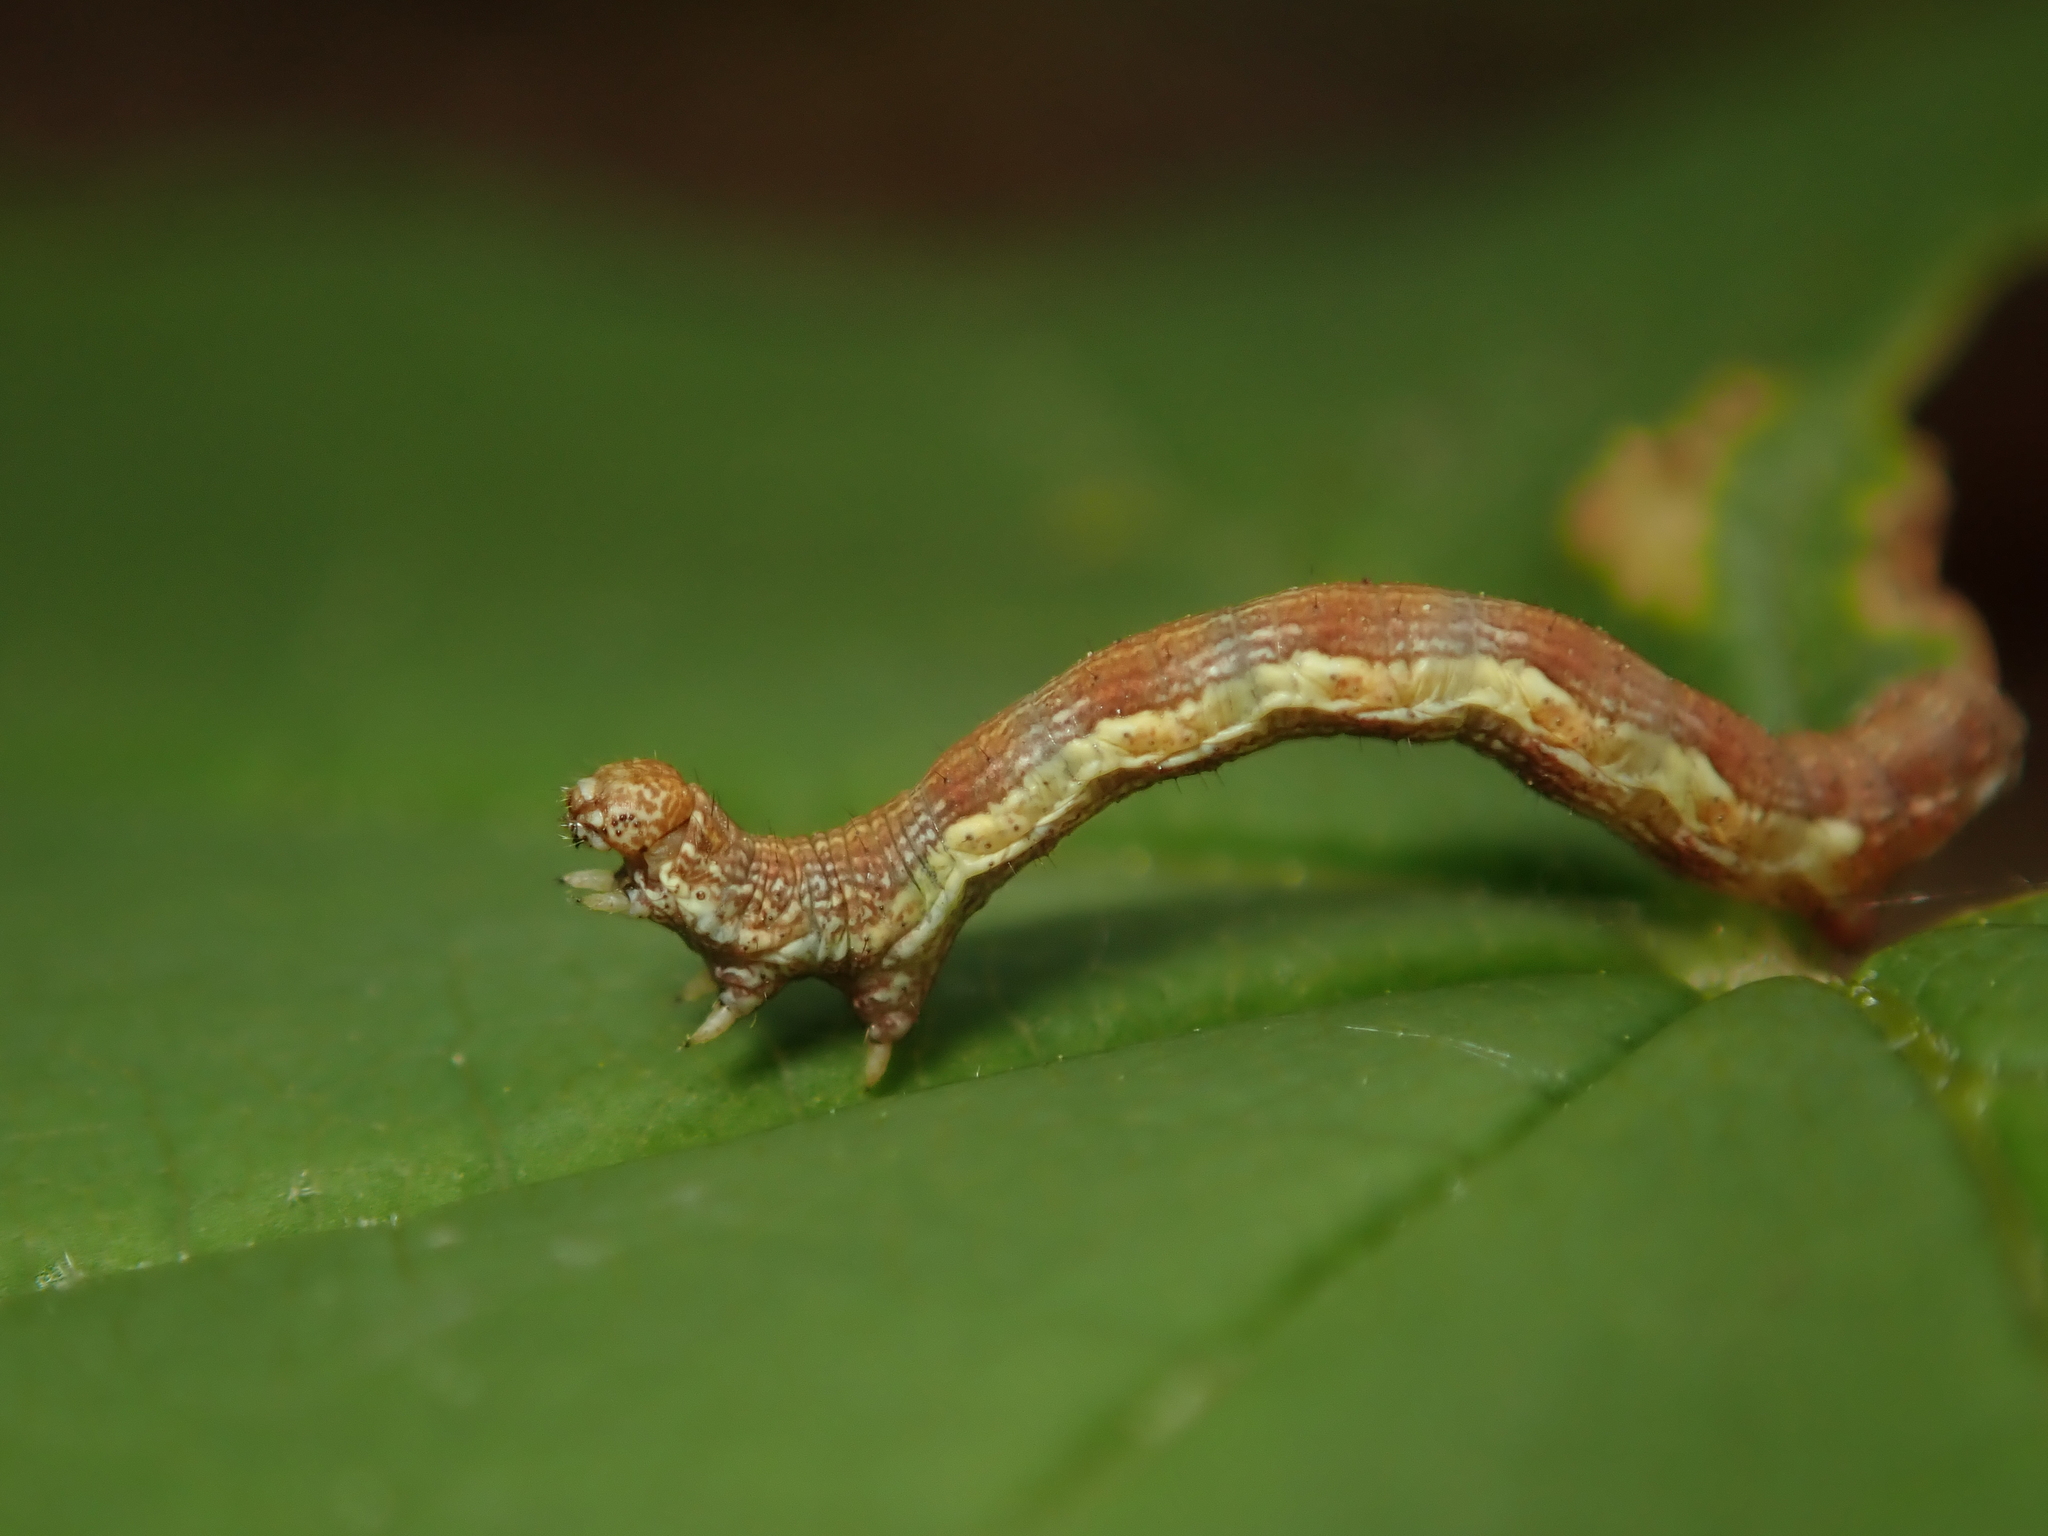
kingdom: Animalia
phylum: Arthropoda
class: Insecta
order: Lepidoptera
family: Geometridae
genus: Erannis
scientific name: Erannis defoliaria
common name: Mottled umber
